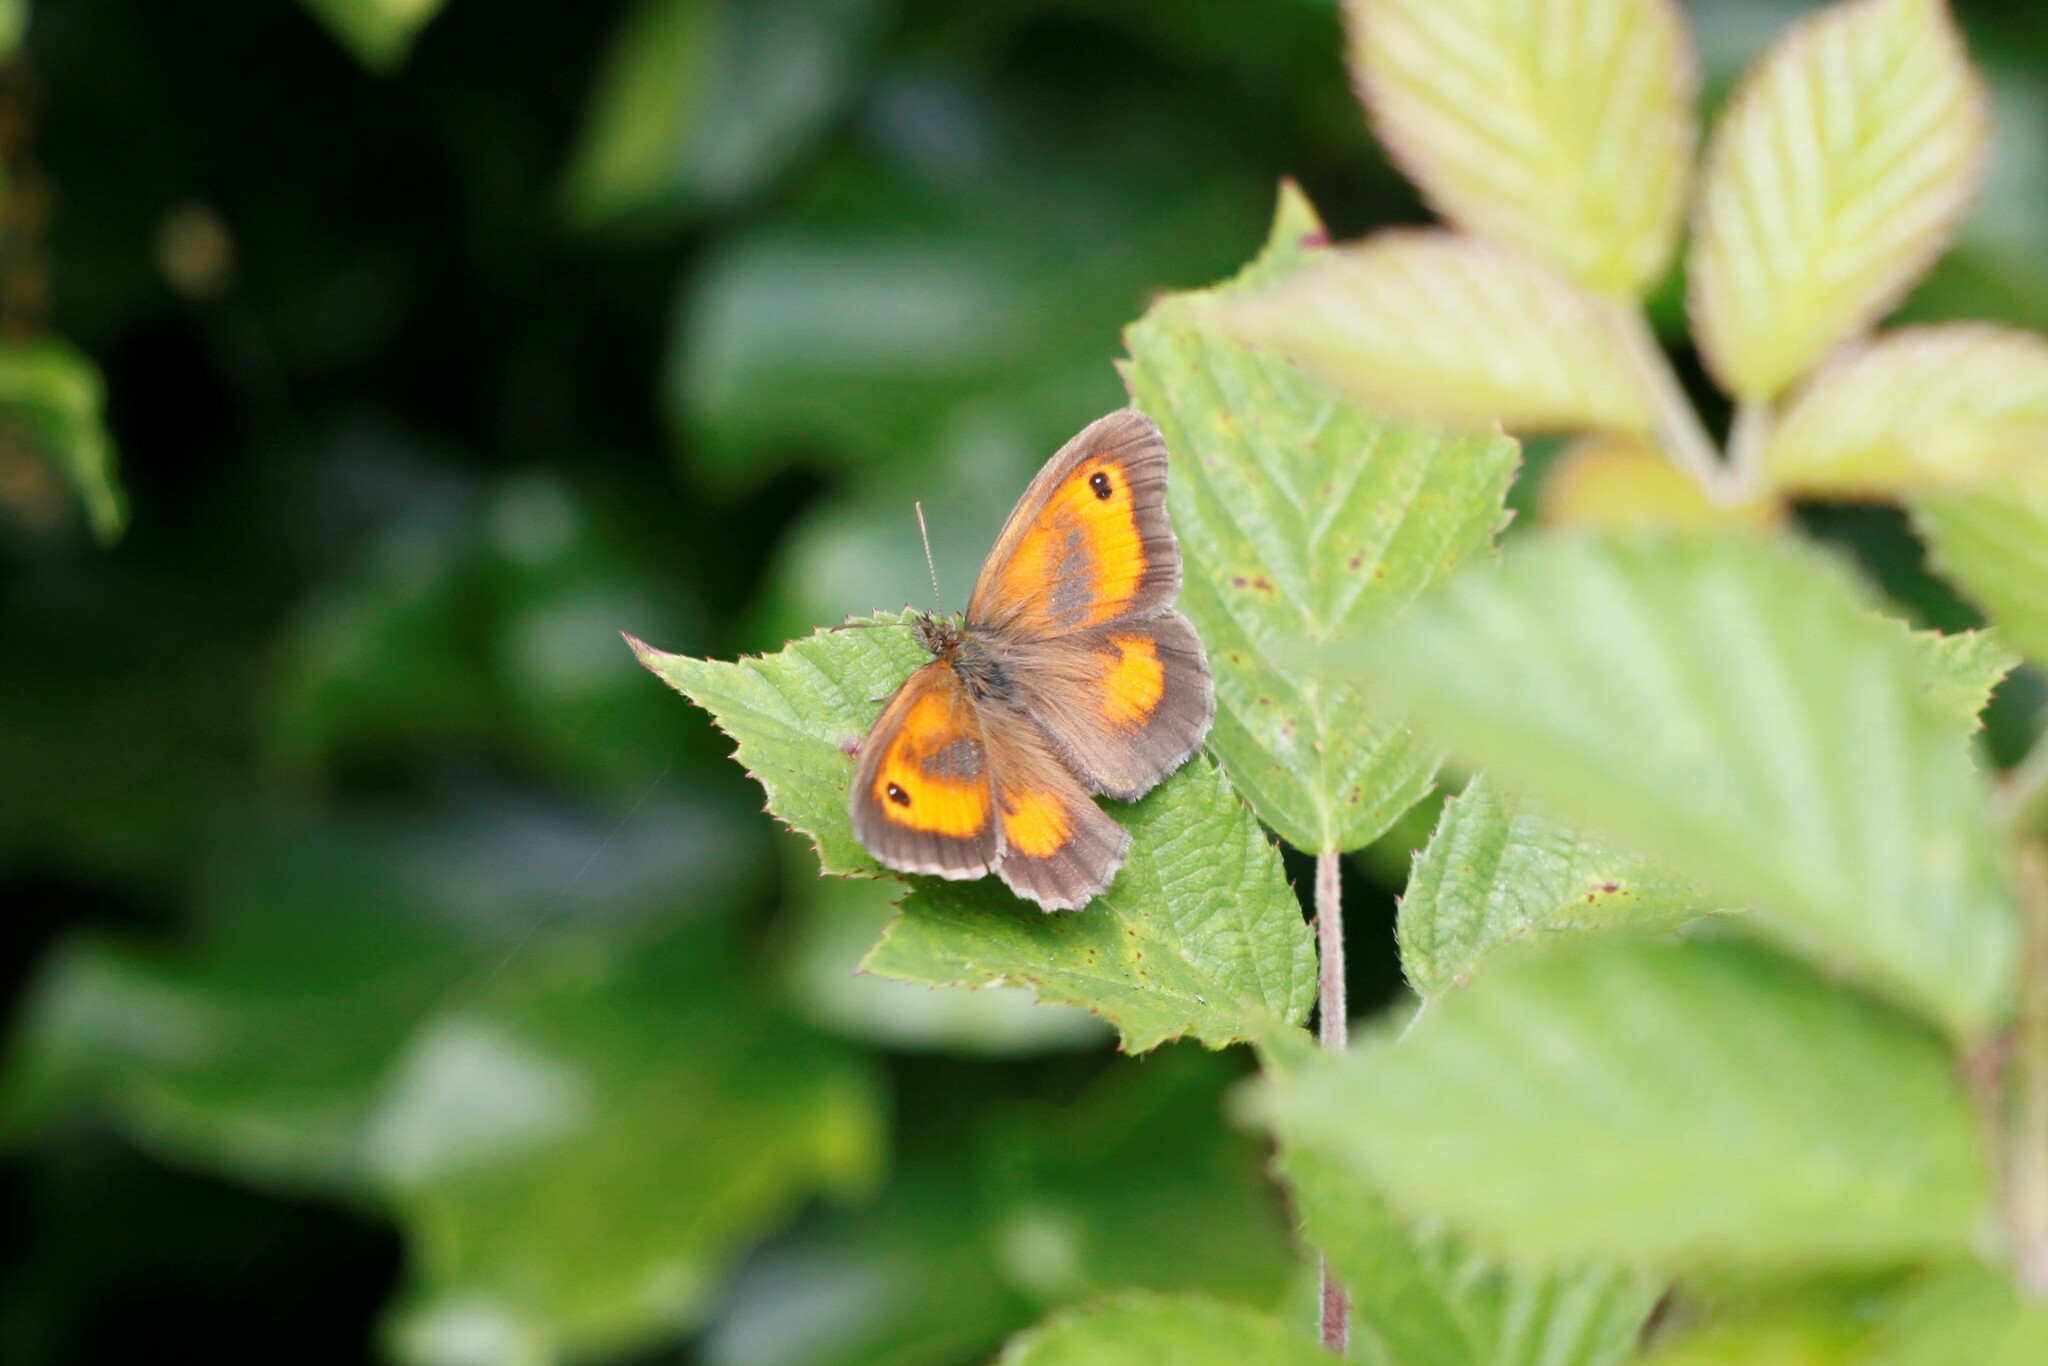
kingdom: Animalia
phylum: Arthropoda
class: Insecta
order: Lepidoptera
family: Nymphalidae
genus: Pyronia
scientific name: Pyronia tithonus
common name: Gatekeeper
